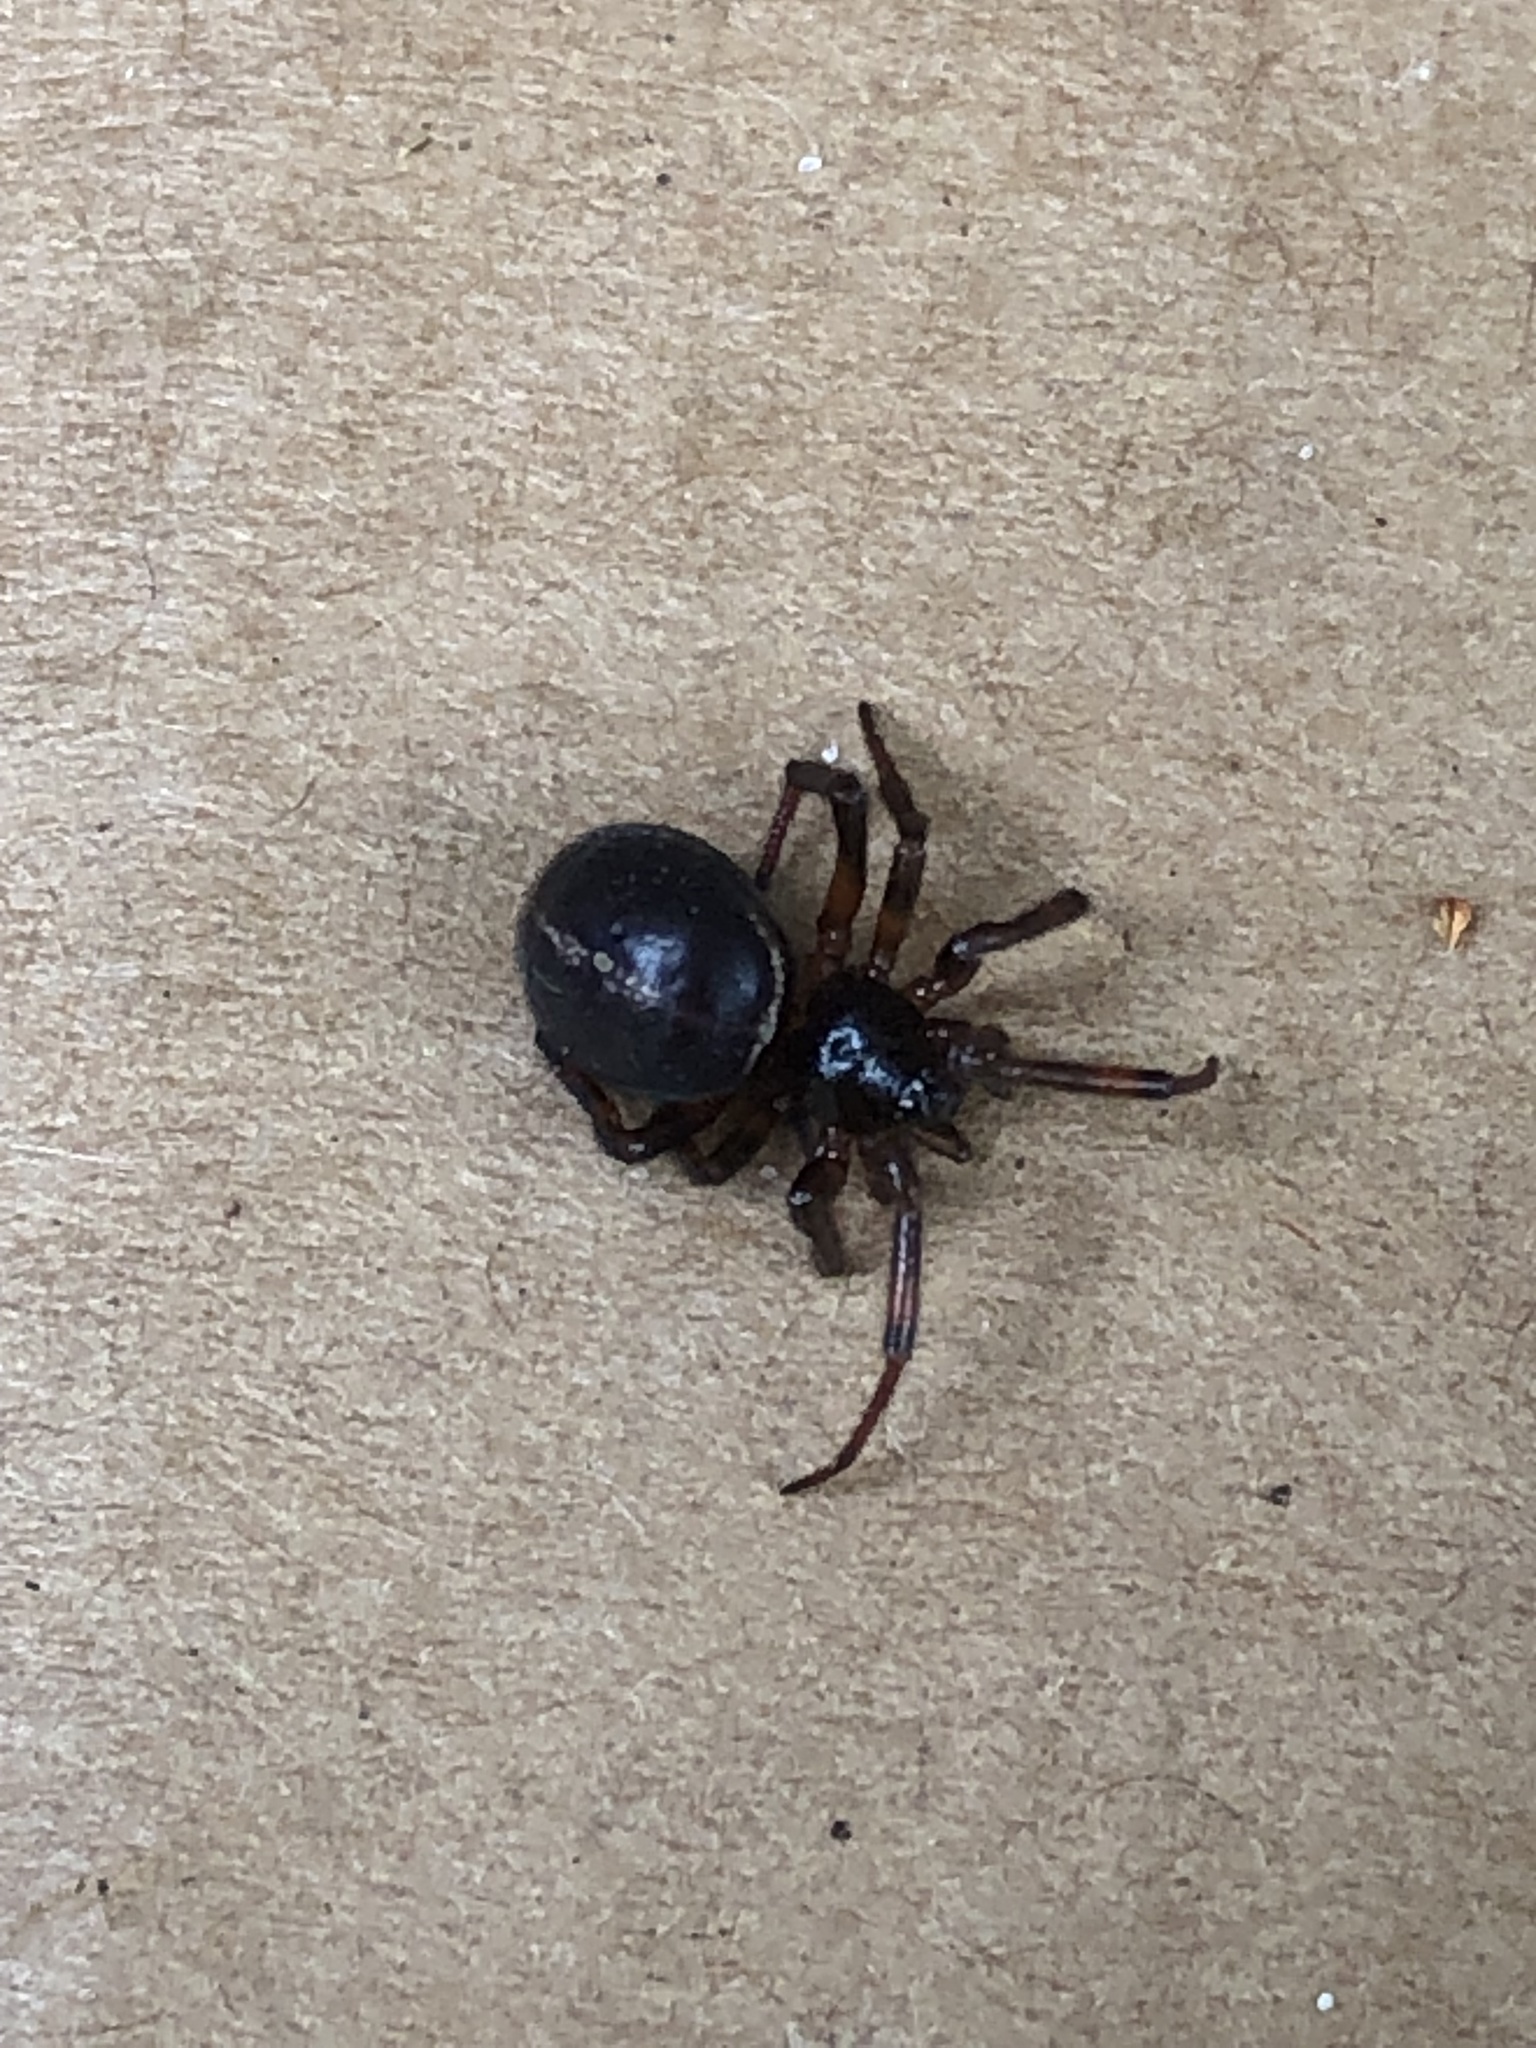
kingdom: Animalia
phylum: Arthropoda
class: Arachnida
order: Araneae
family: Theridiidae
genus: Steatoda
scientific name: Steatoda borealis
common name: Boreal combfoot
